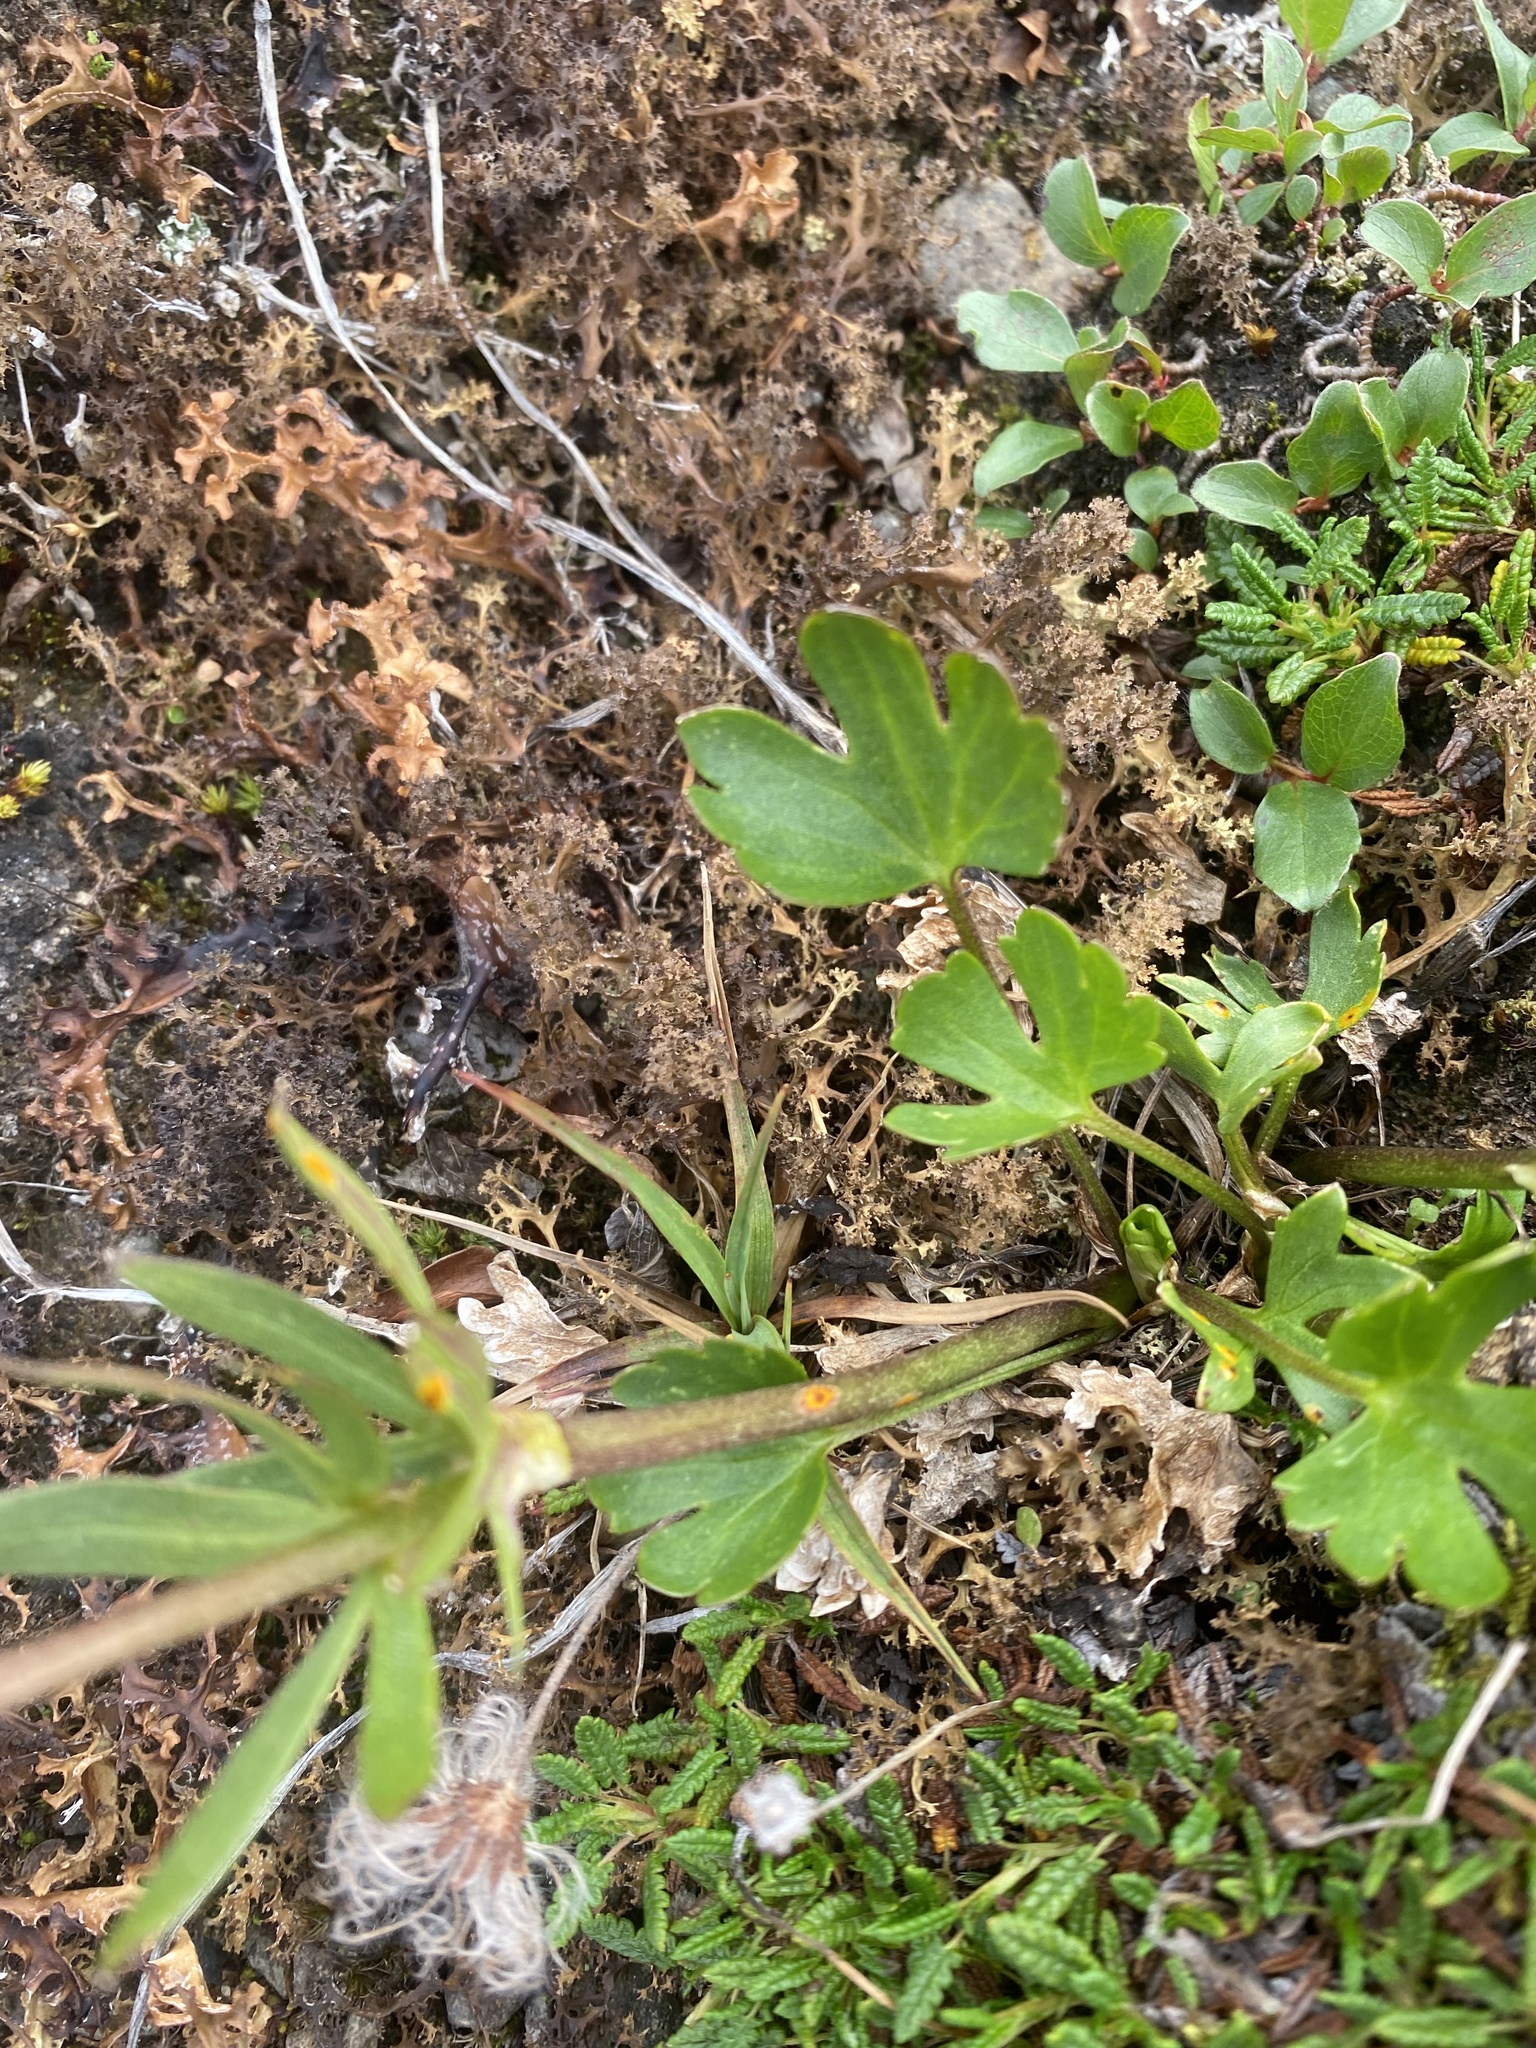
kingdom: Plantae
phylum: Tracheophyta
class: Magnoliopsida
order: Ranunculales
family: Ranunculaceae
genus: Ranunculus
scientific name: Ranunculus sulphureus
